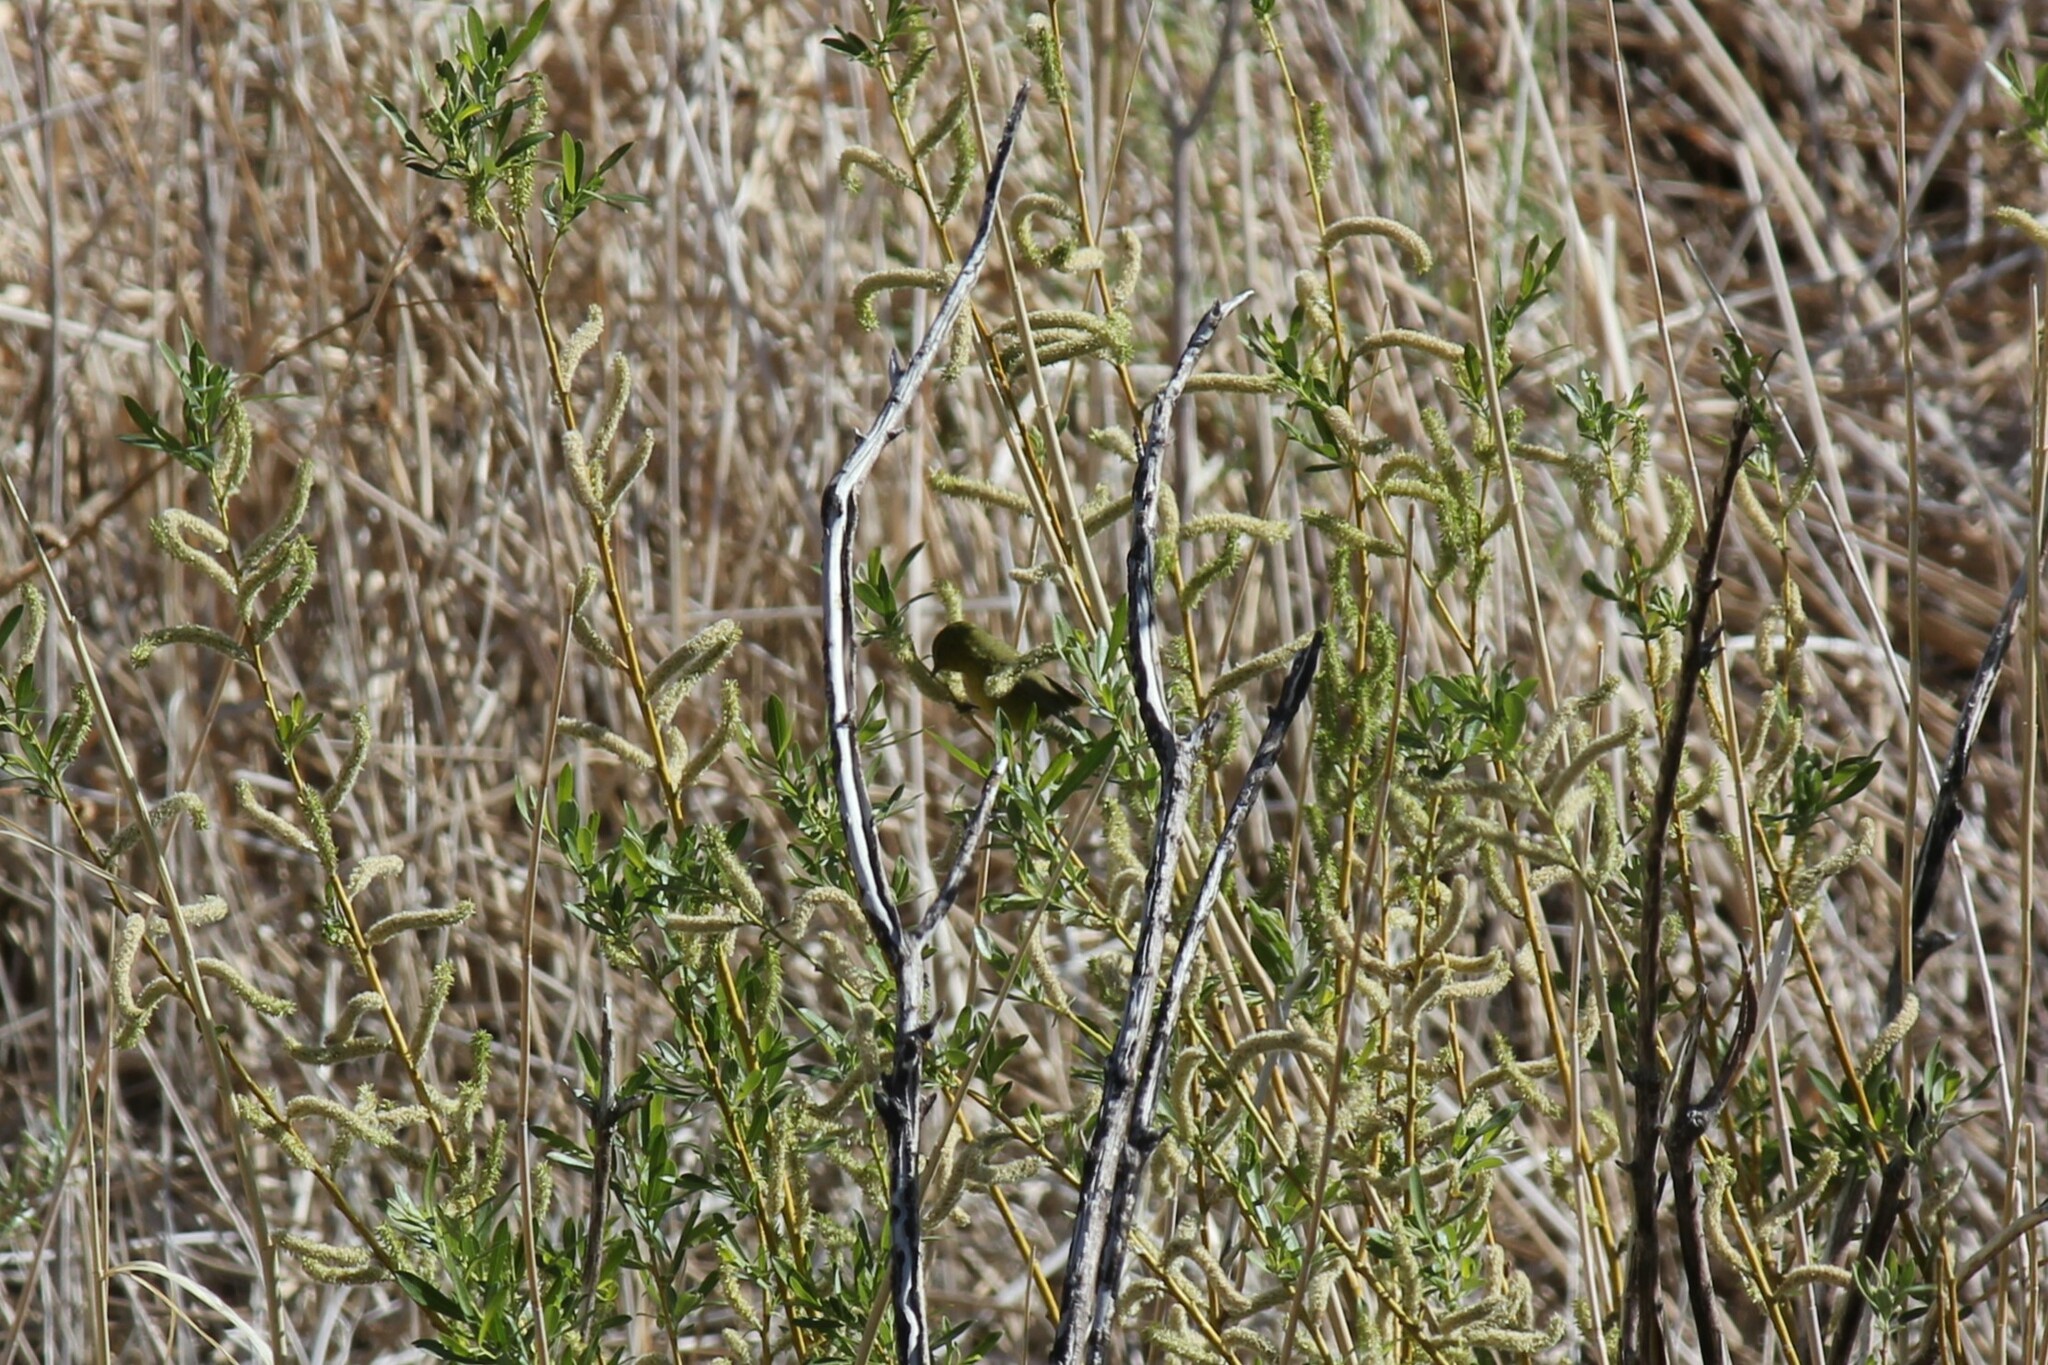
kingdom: Animalia
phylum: Chordata
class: Aves
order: Passeriformes
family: Parulidae
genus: Leiothlypis
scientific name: Leiothlypis celata
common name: Orange-crowned warbler
